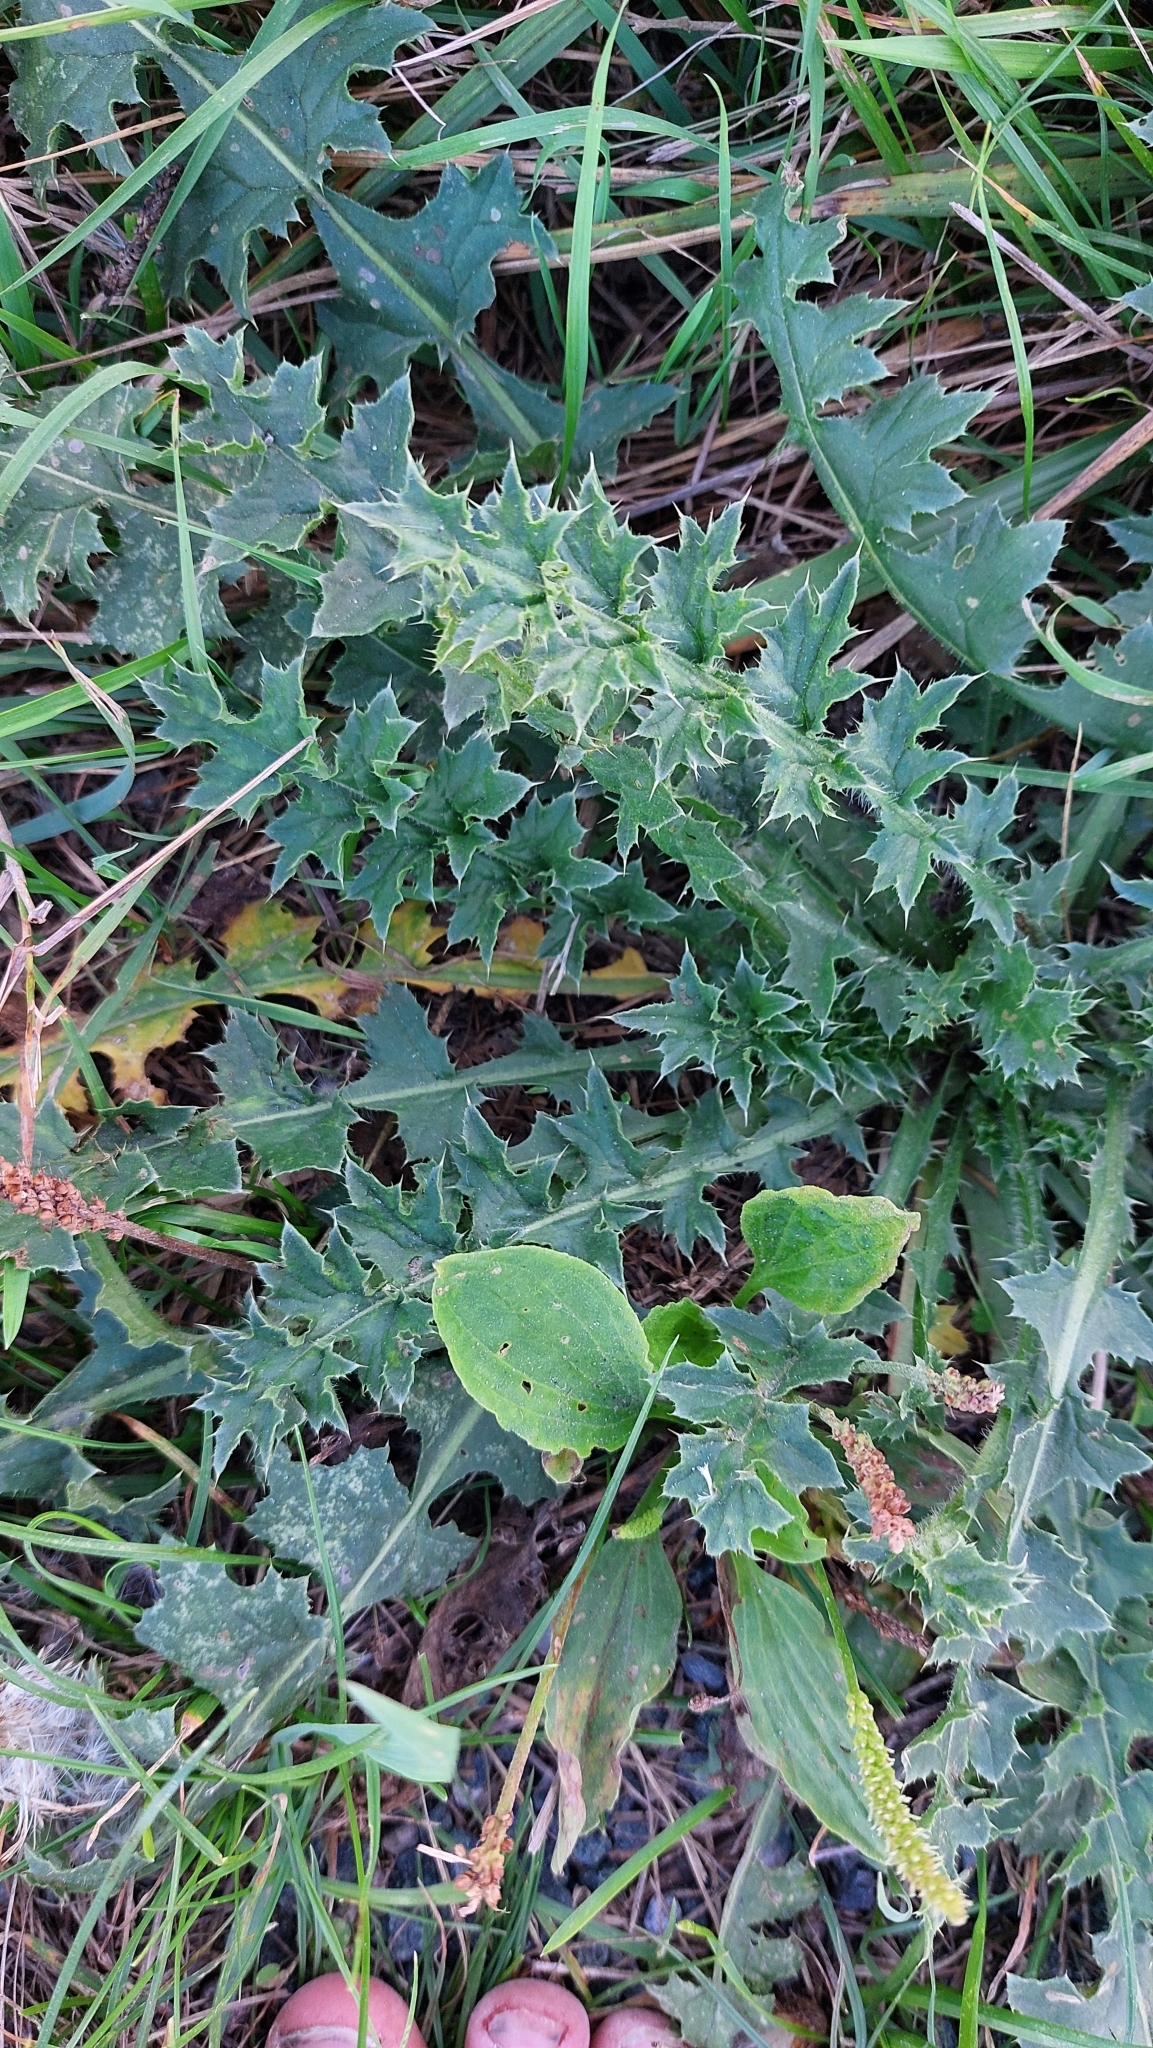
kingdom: Plantae
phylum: Tracheophyta
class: Magnoliopsida
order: Asterales
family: Asteraceae
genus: Carduus
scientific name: Carduus acanthoides
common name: Plumeless thistle
